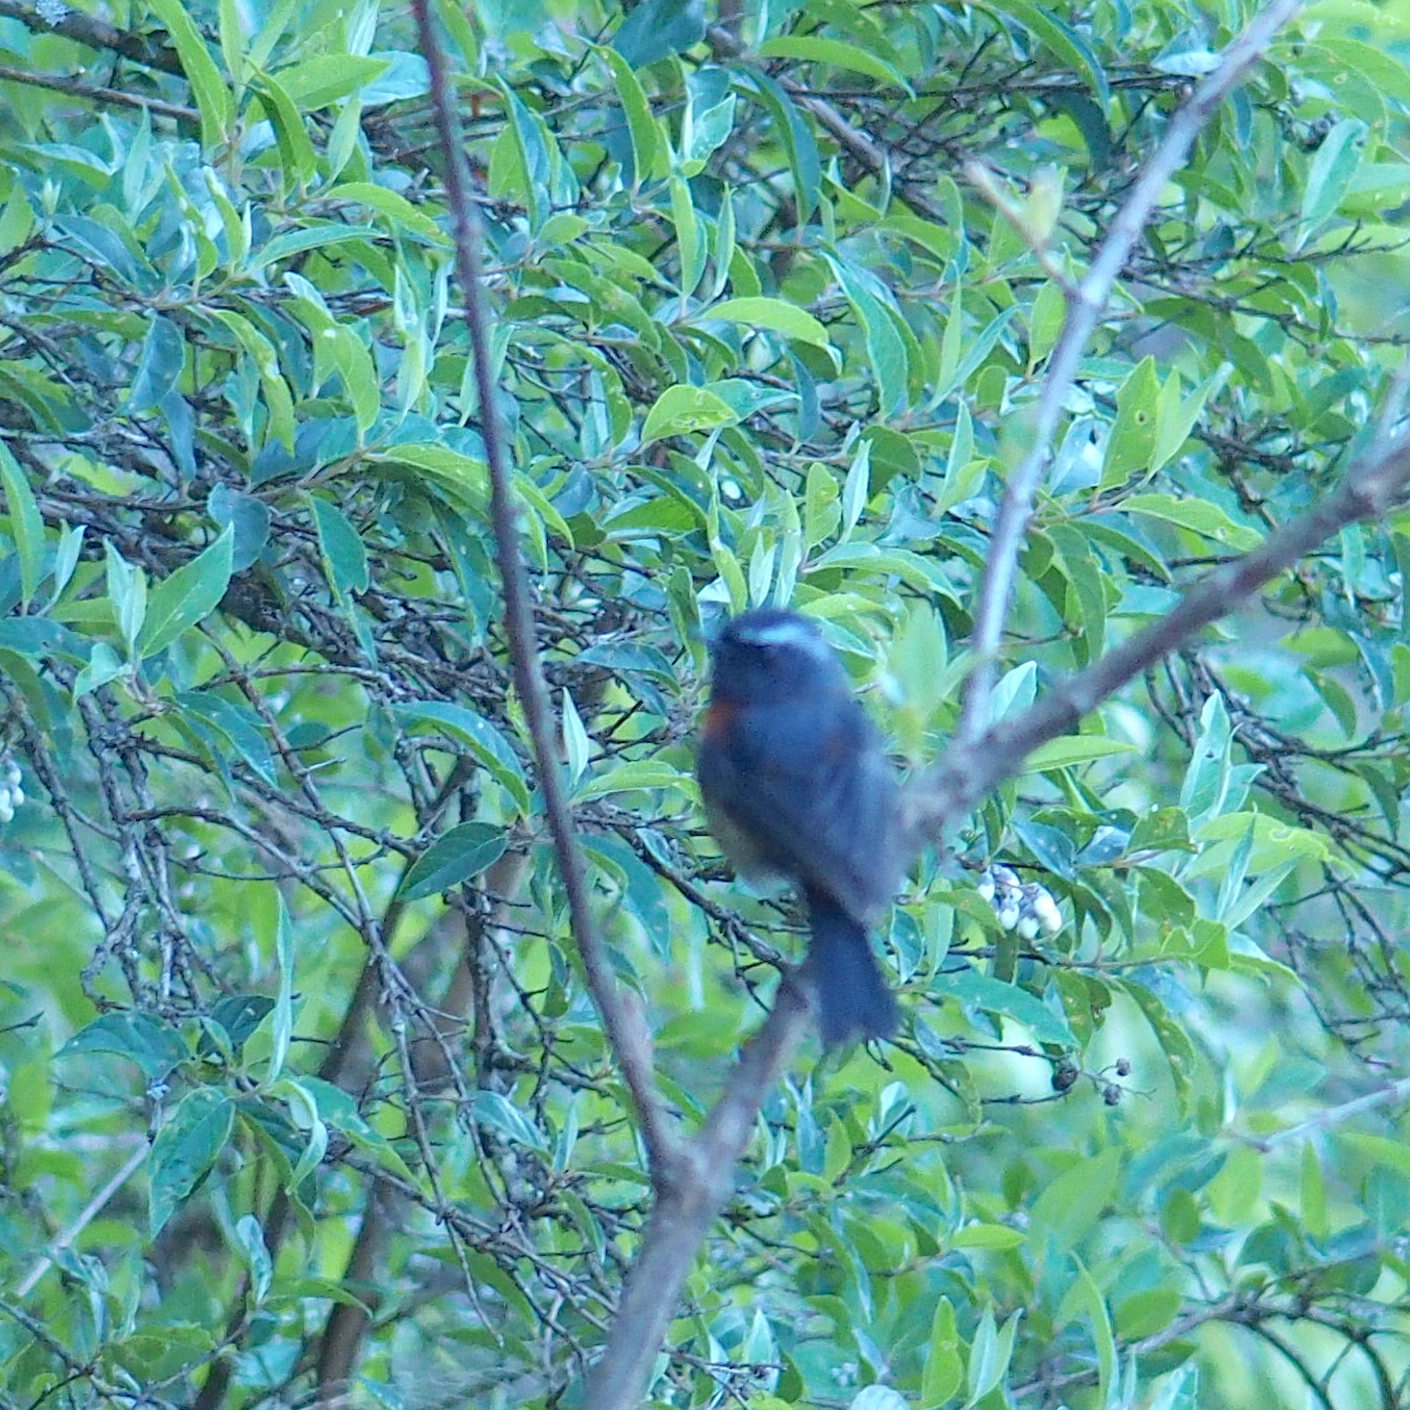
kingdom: Animalia
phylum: Chordata
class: Aves
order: Passeriformes
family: Muscicapidae
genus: Tarsiger
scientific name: Tarsiger johnstoniae
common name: Collared bush robin
